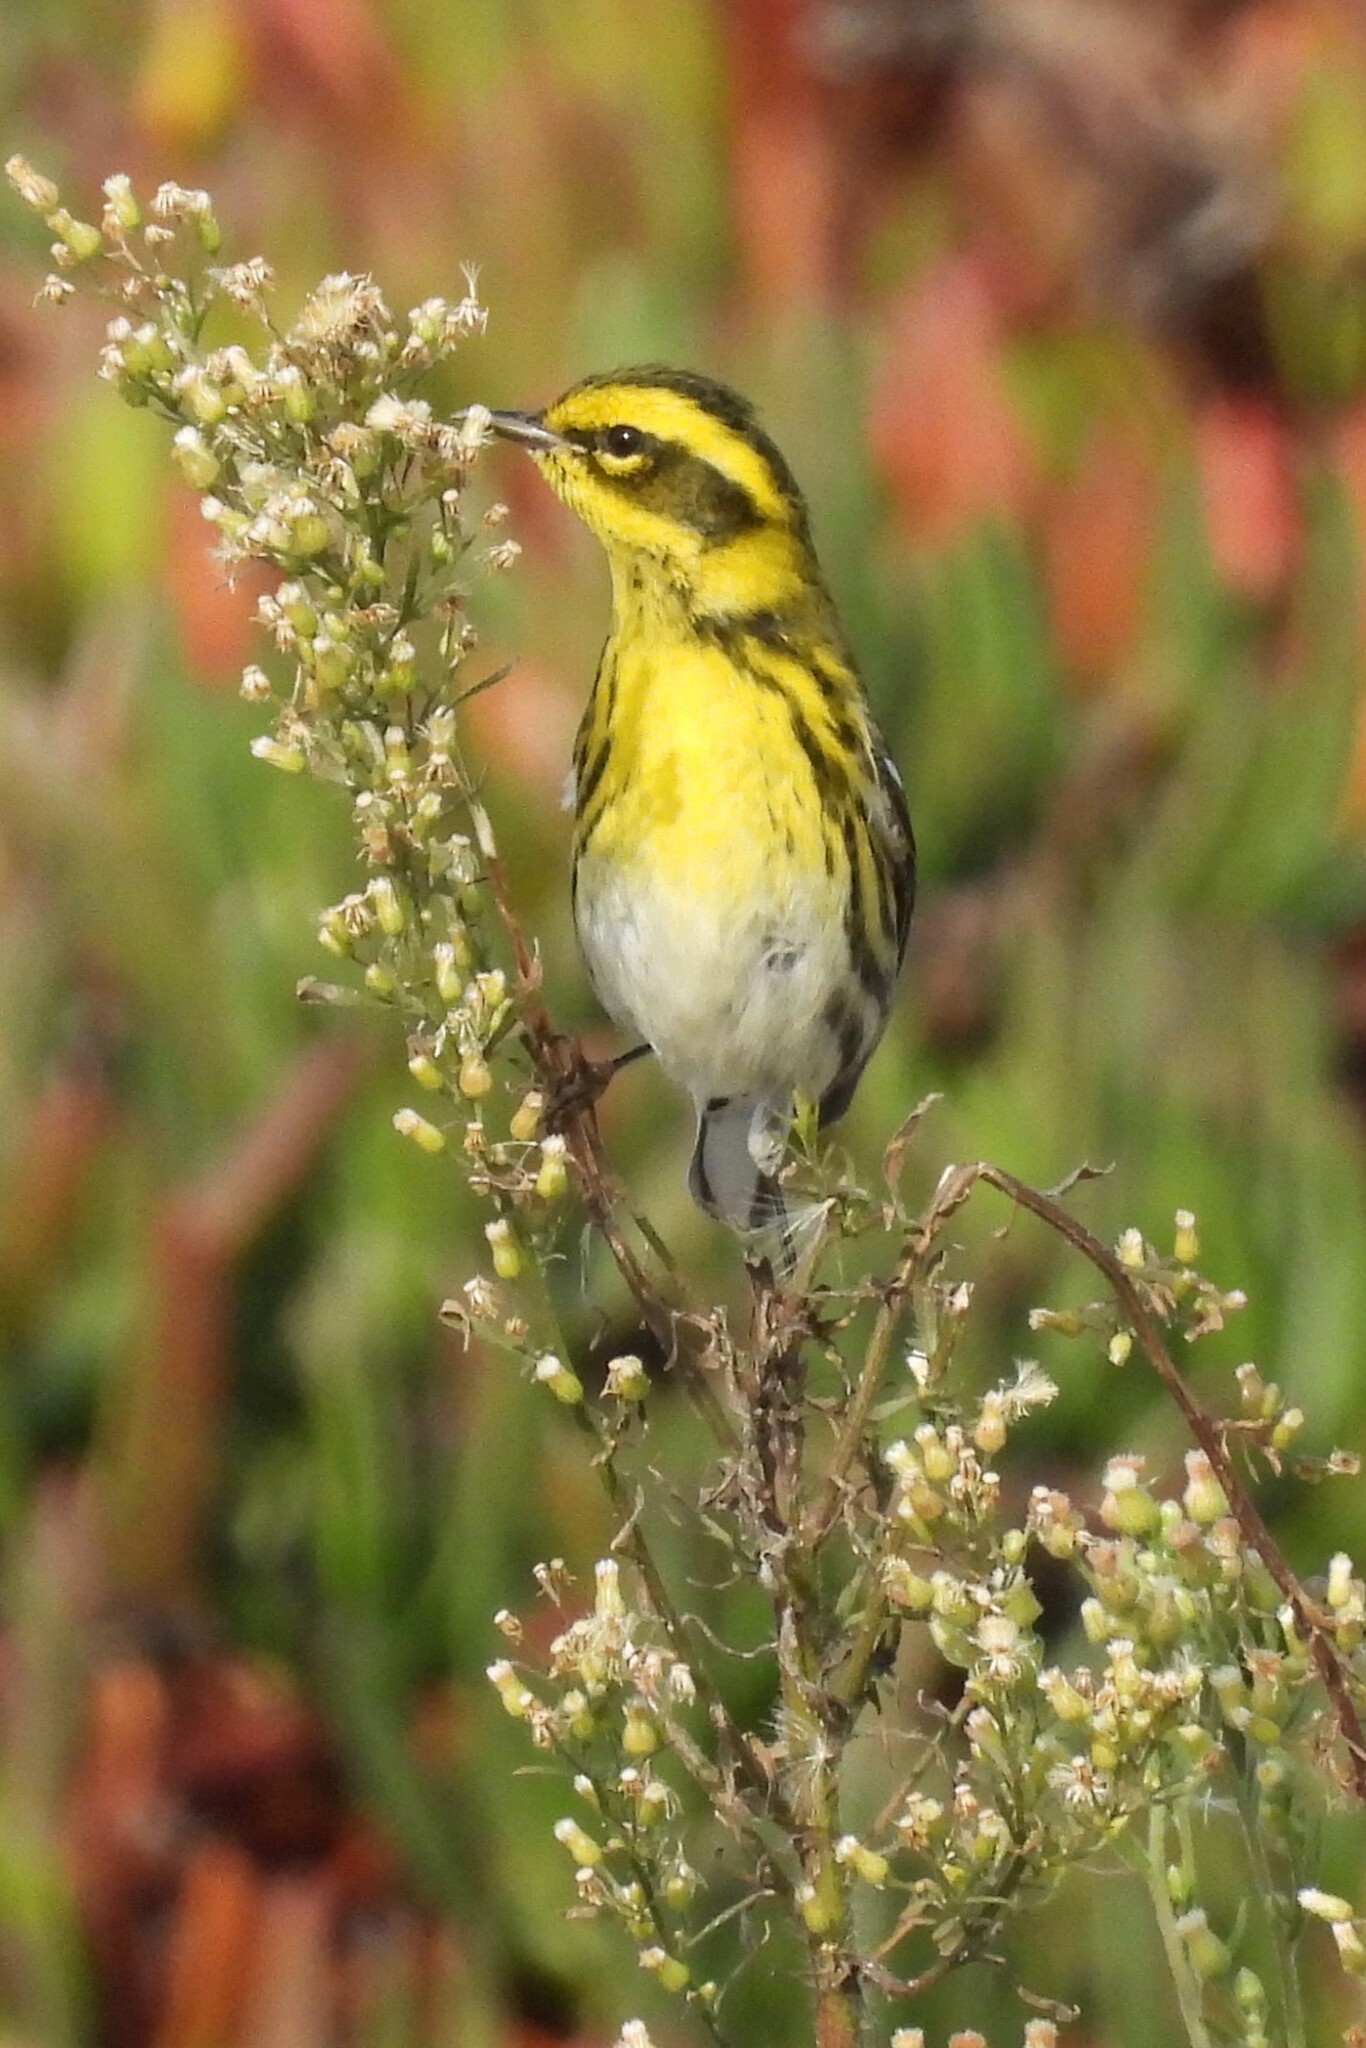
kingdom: Animalia
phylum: Chordata
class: Aves
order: Passeriformes
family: Parulidae
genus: Setophaga
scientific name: Setophaga townsendi
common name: Townsend's warbler
